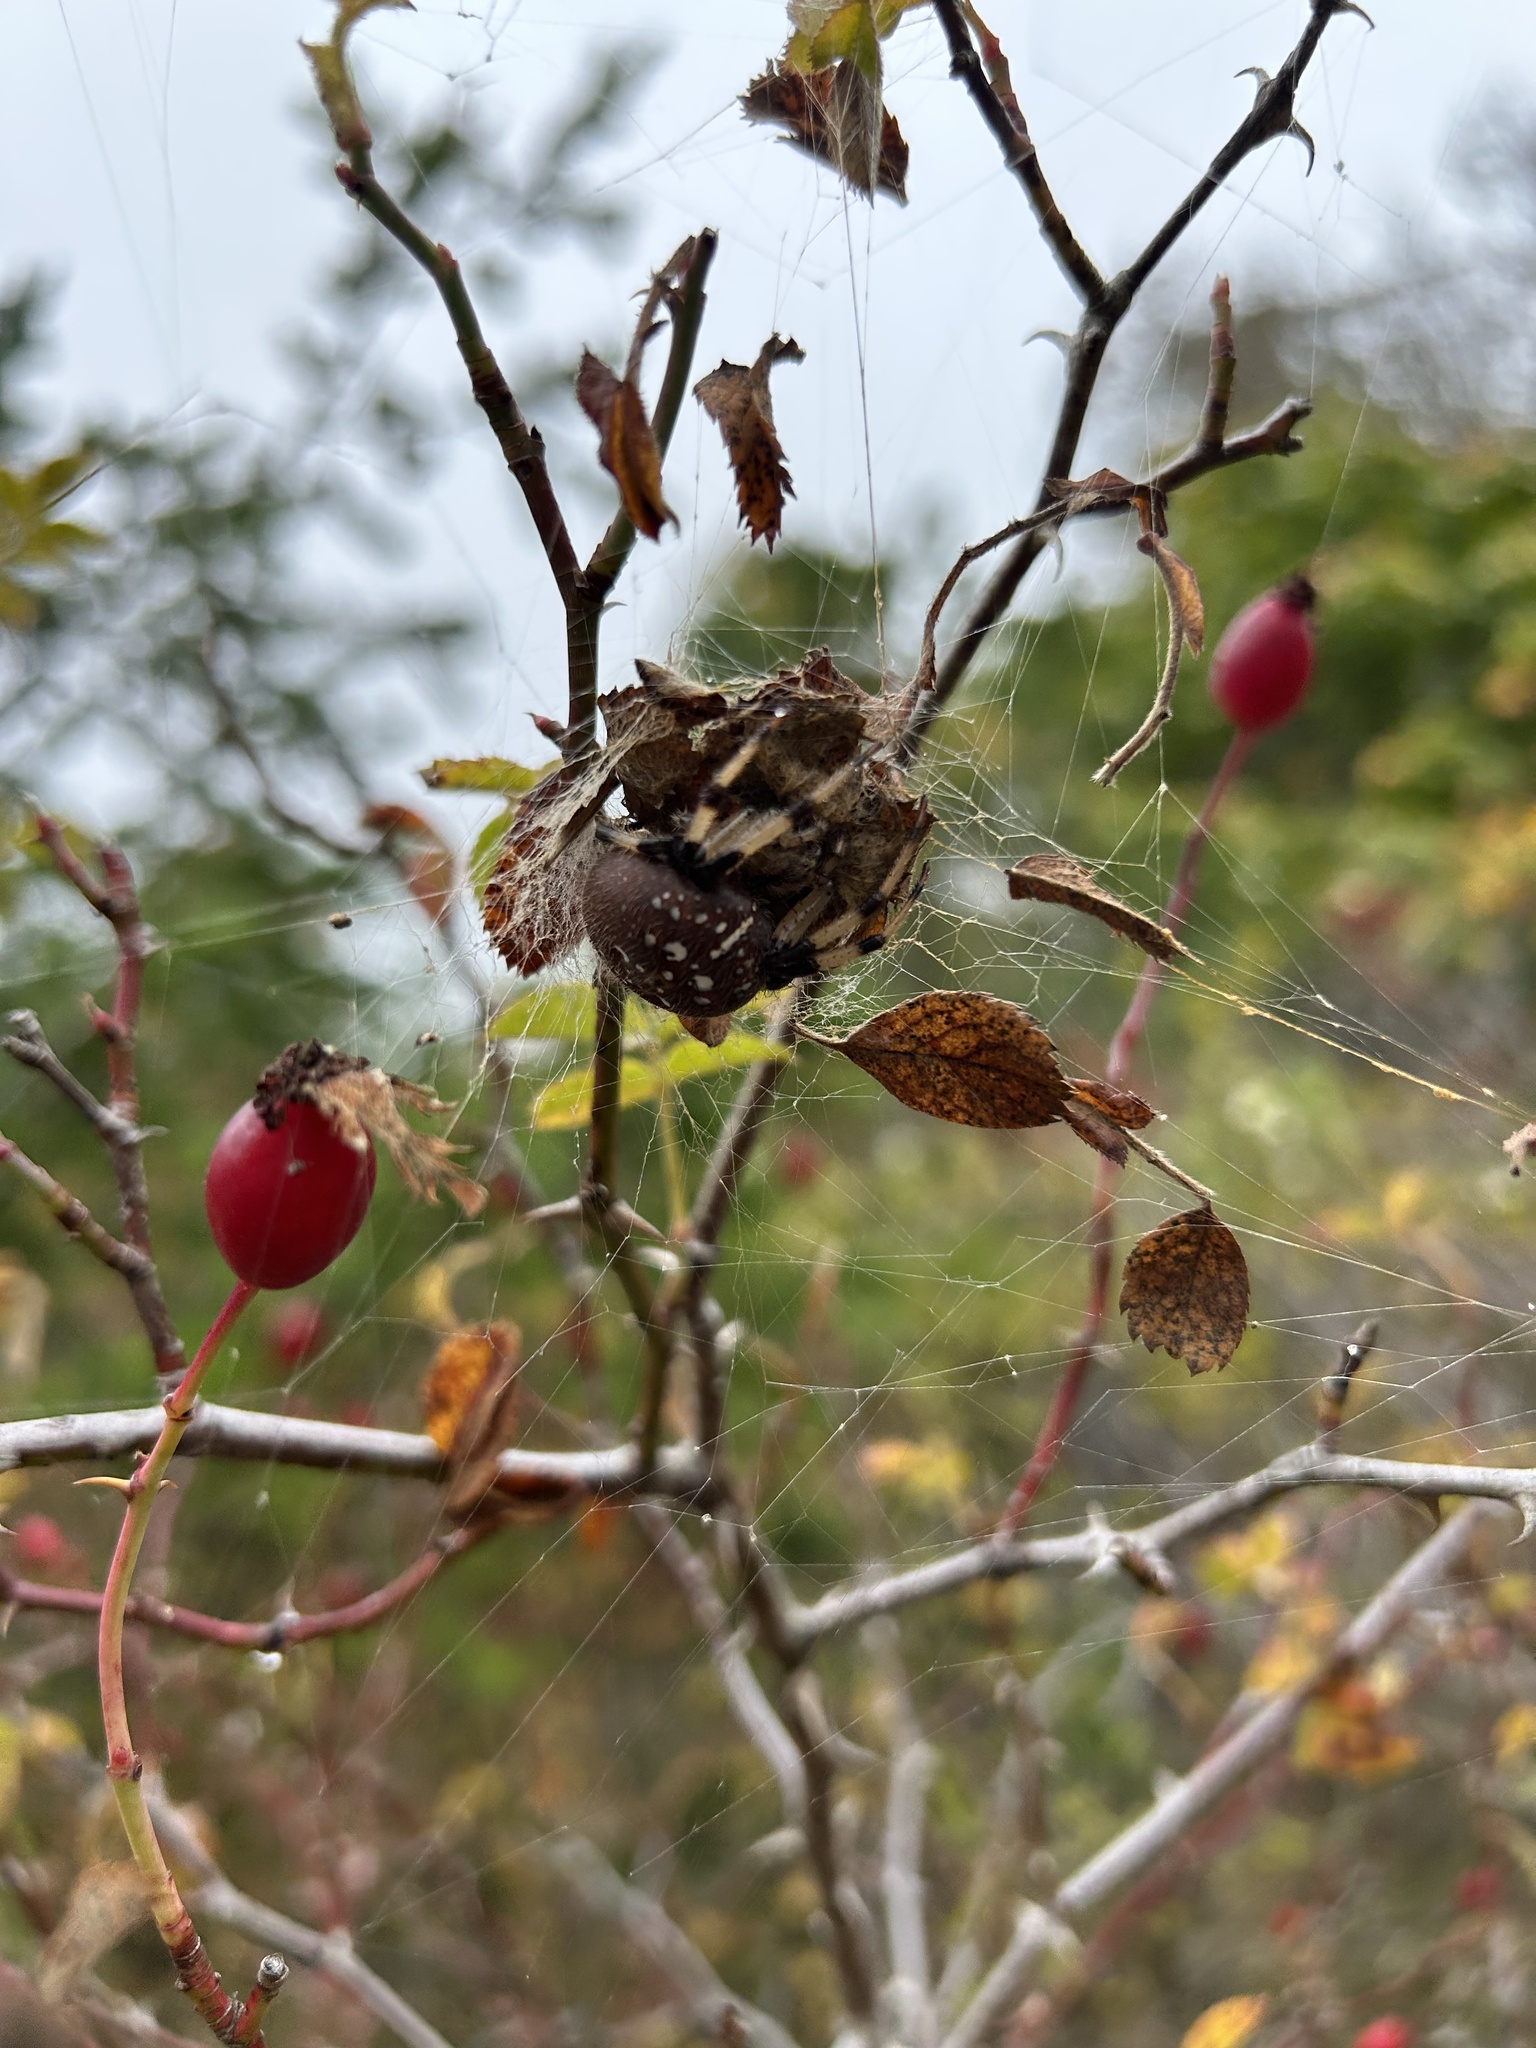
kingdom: Animalia
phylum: Arthropoda
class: Arachnida
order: Araneae
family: Araneidae
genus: Araneus
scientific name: Araneus trifolium
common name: Shamrock orbweaver
